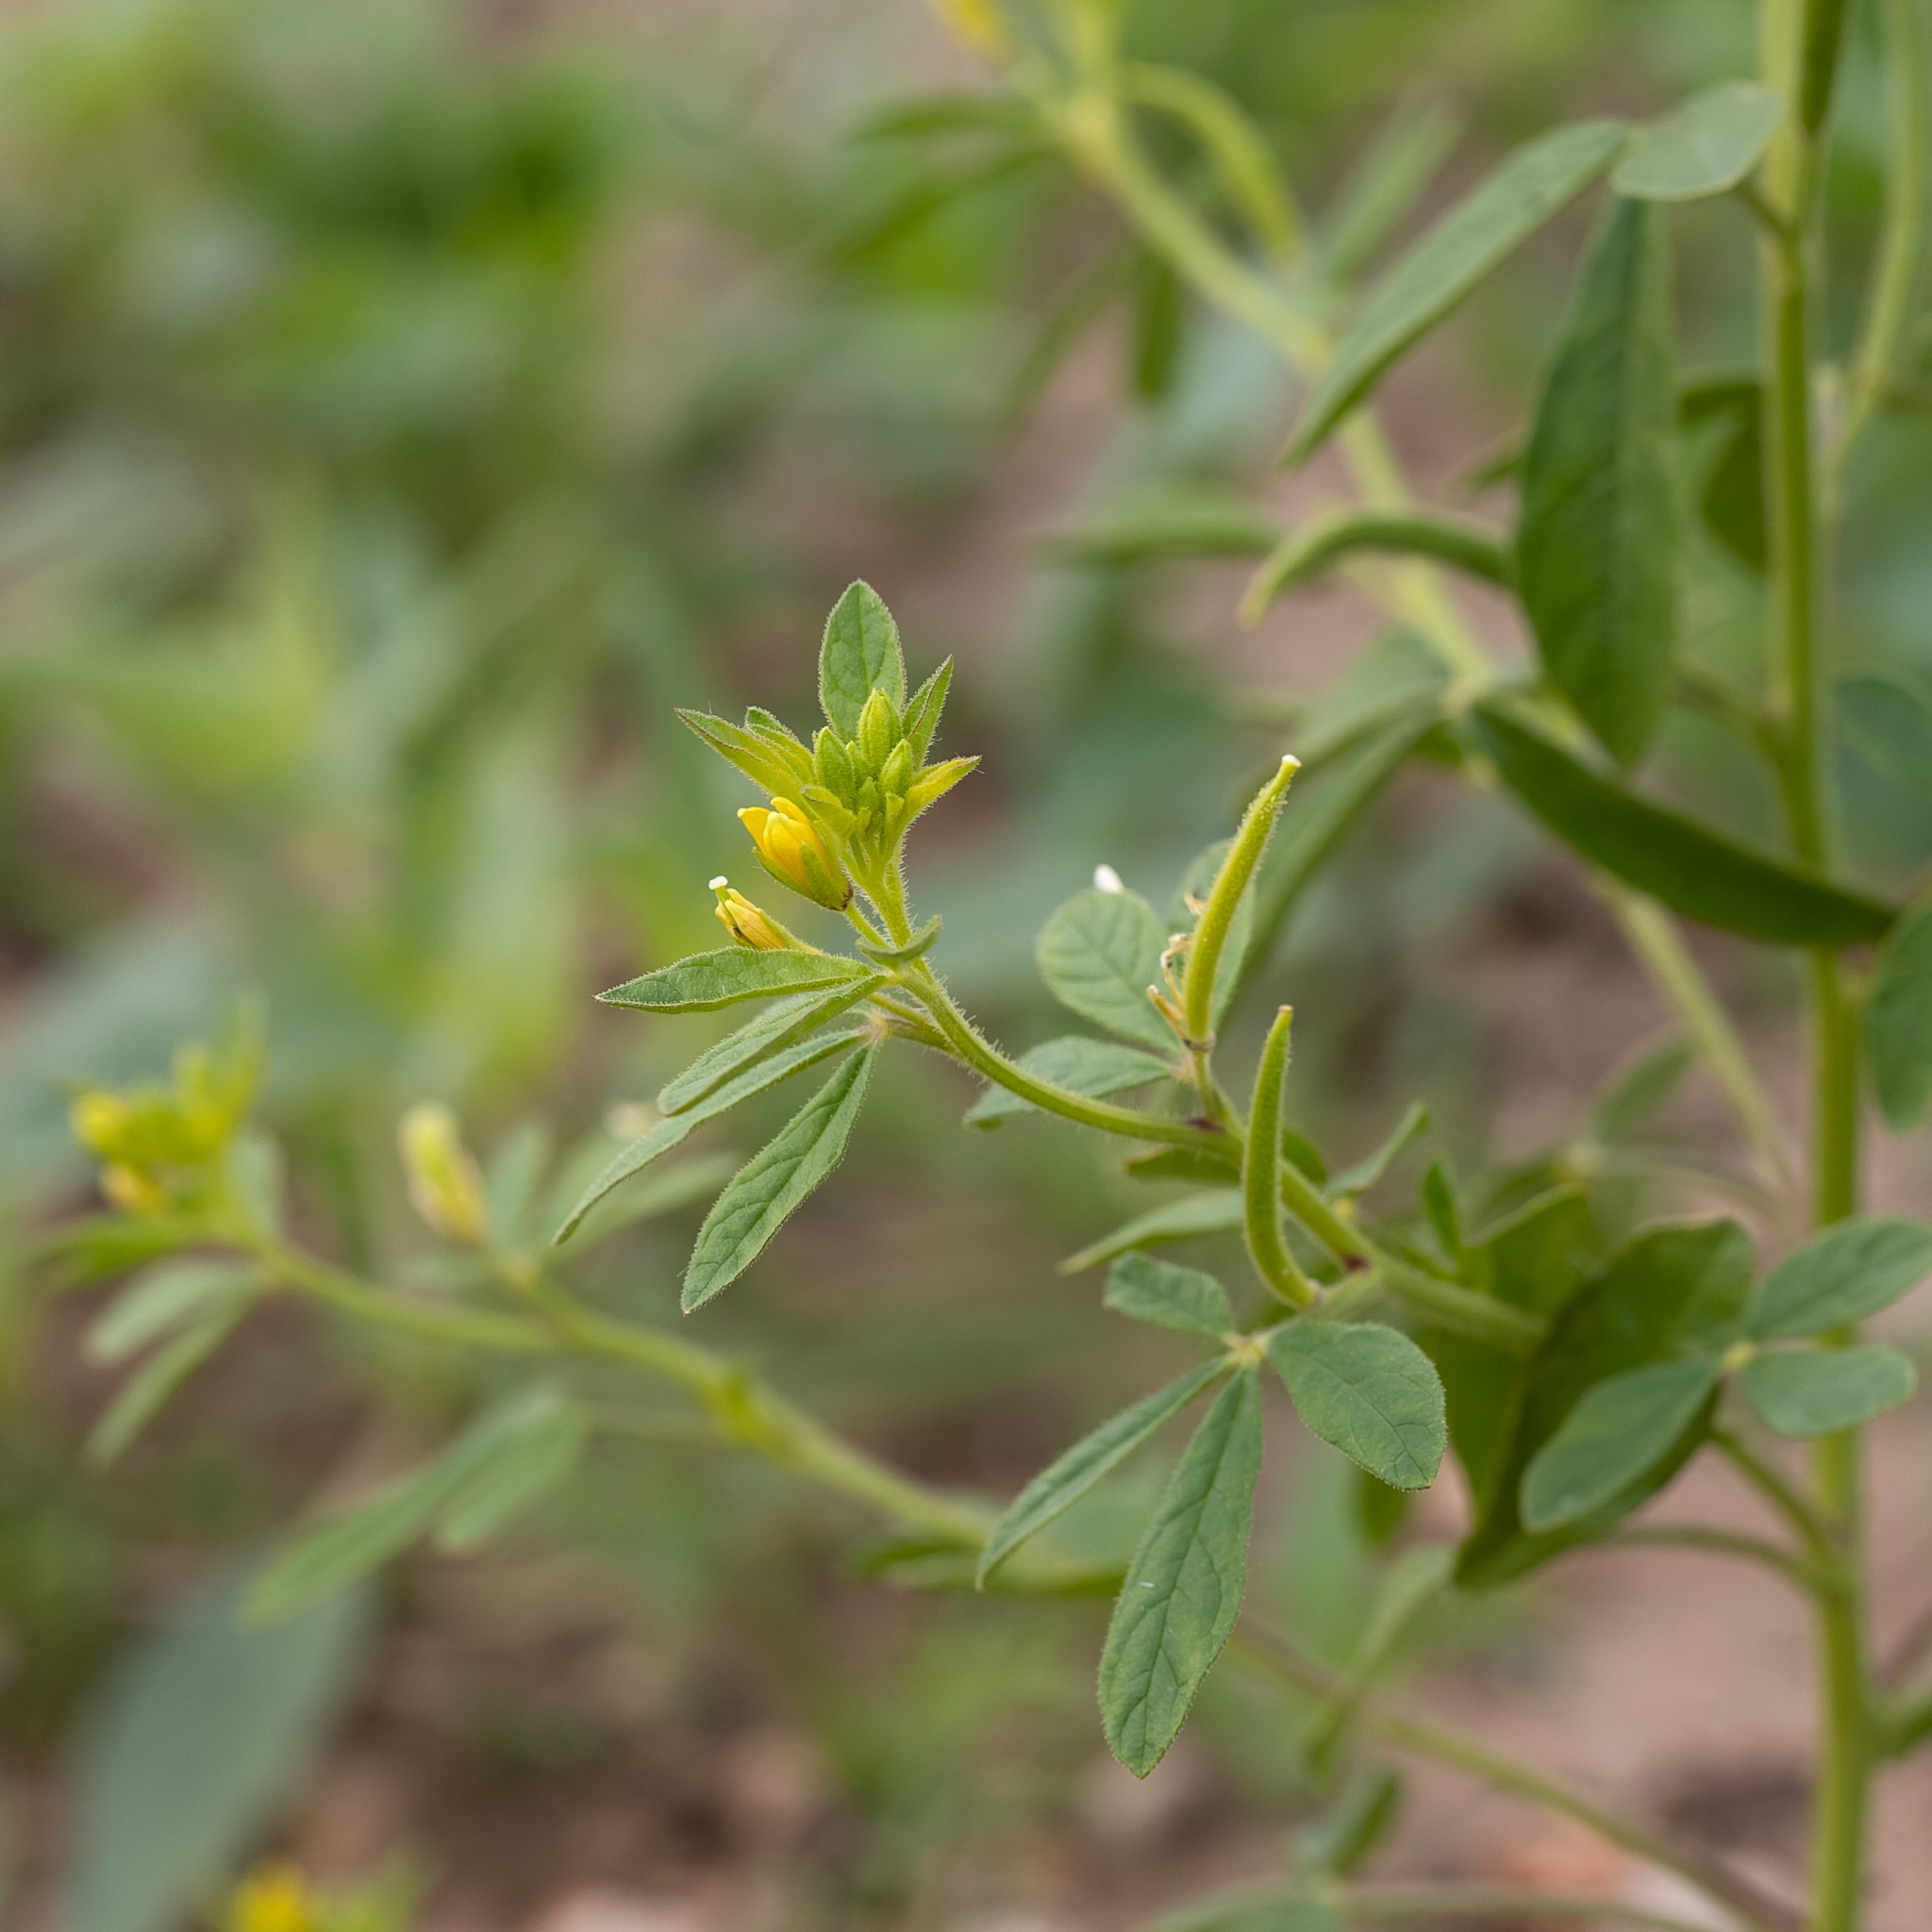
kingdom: Plantae
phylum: Tracheophyta
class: Magnoliopsida
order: Brassicales
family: Cleomaceae
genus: Arivela
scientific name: Arivela viscosa
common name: Asian spiderflower
